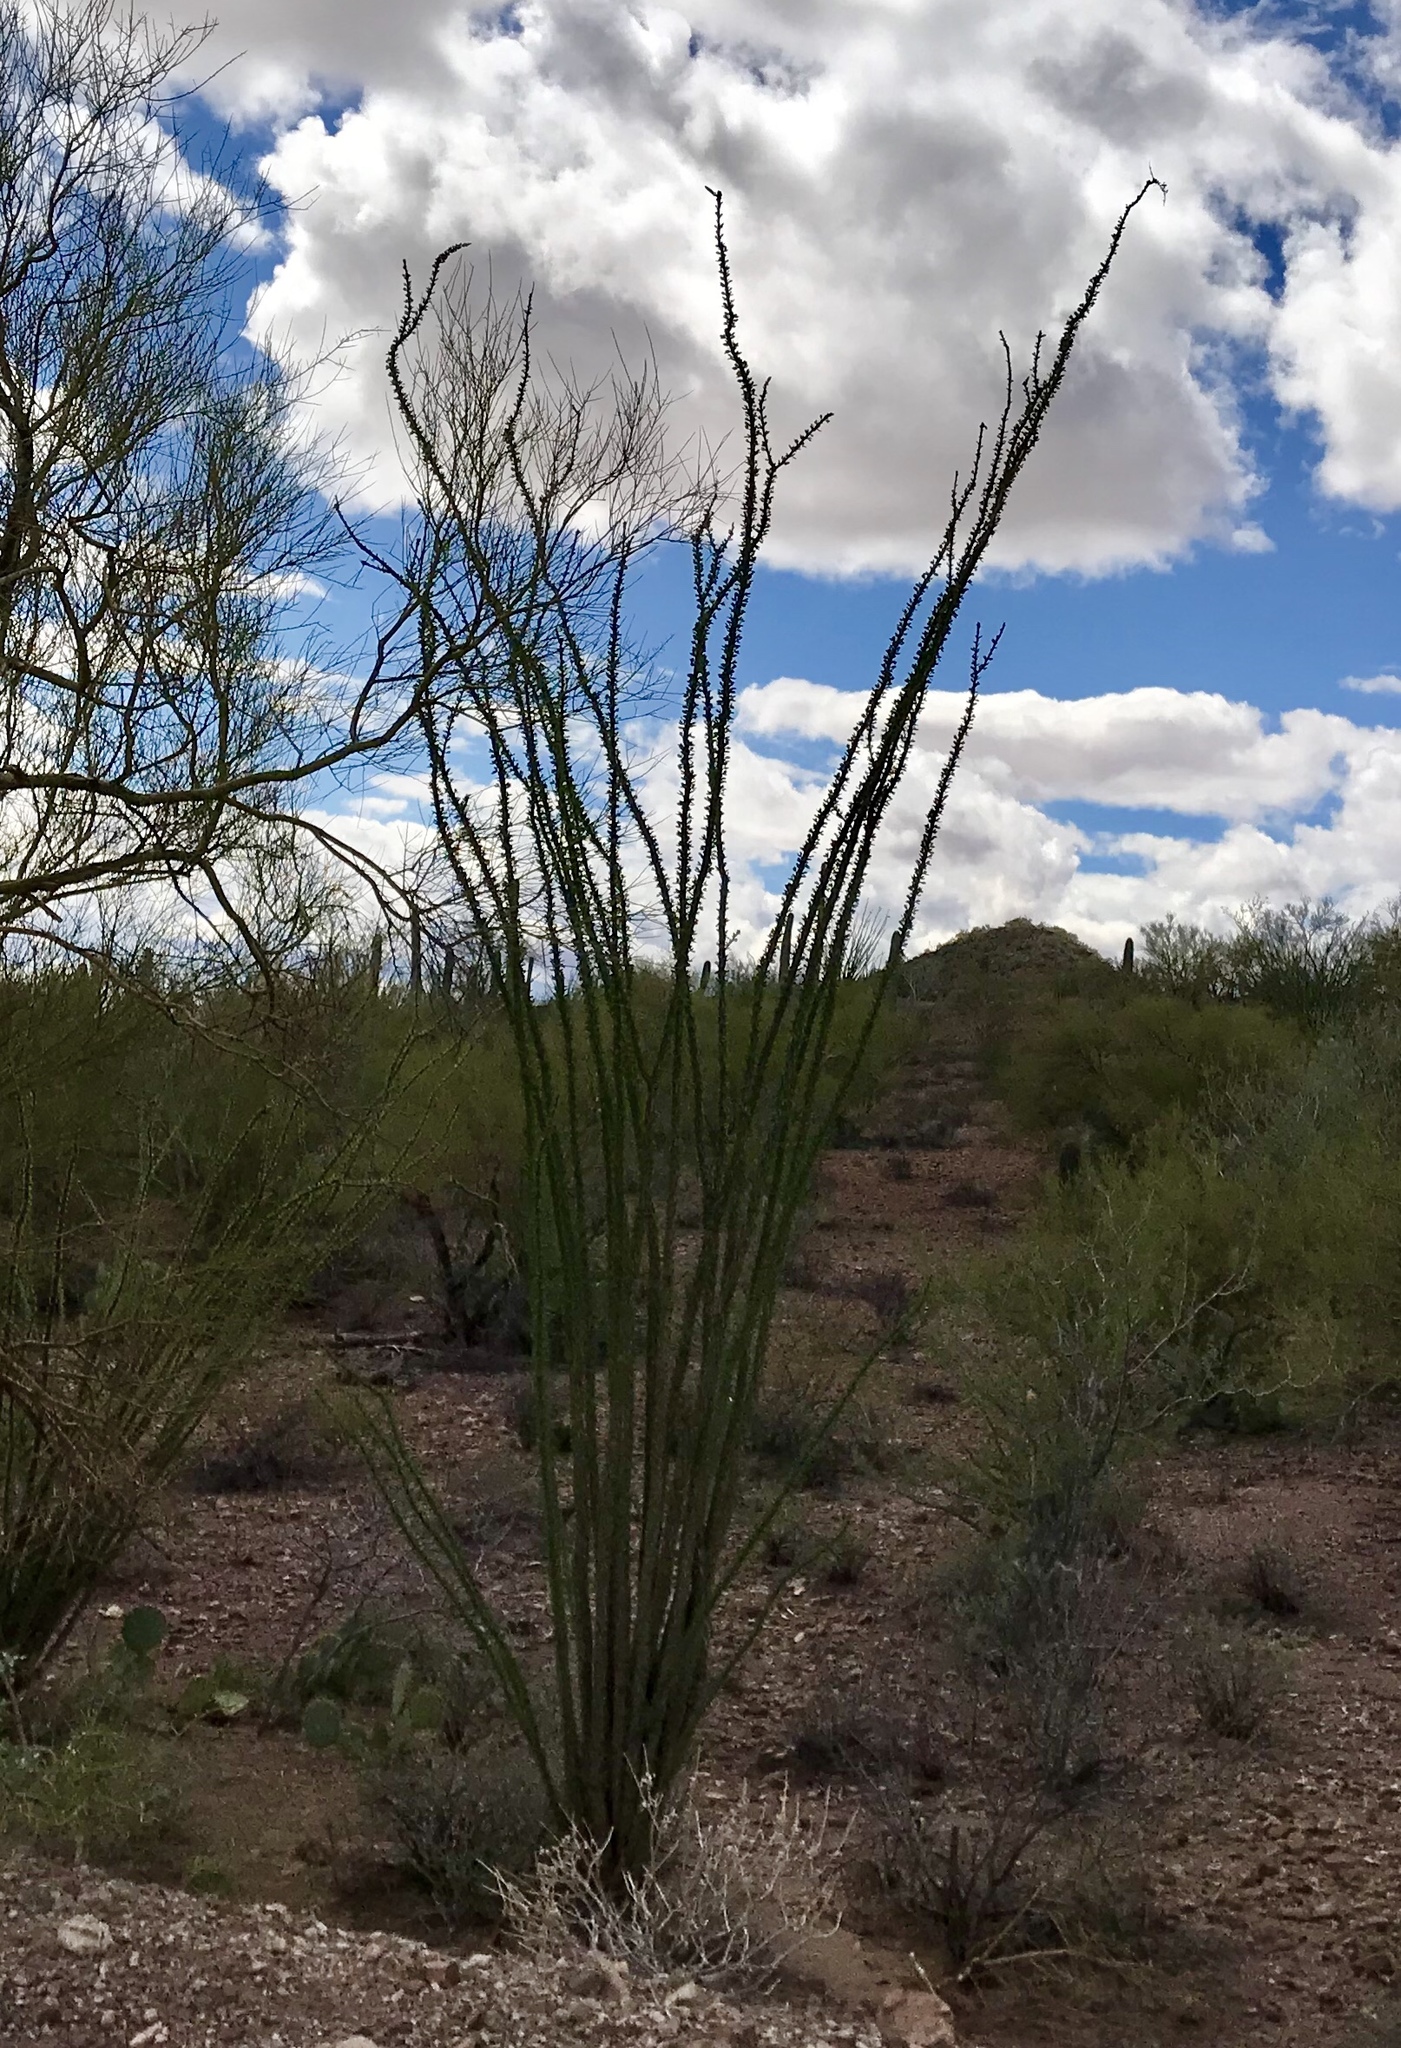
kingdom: Plantae
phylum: Tracheophyta
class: Magnoliopsida
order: Ericales
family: Fouquieriaceae
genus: Fouquieria
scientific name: Fouquieria splendens
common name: Vine-cactus
